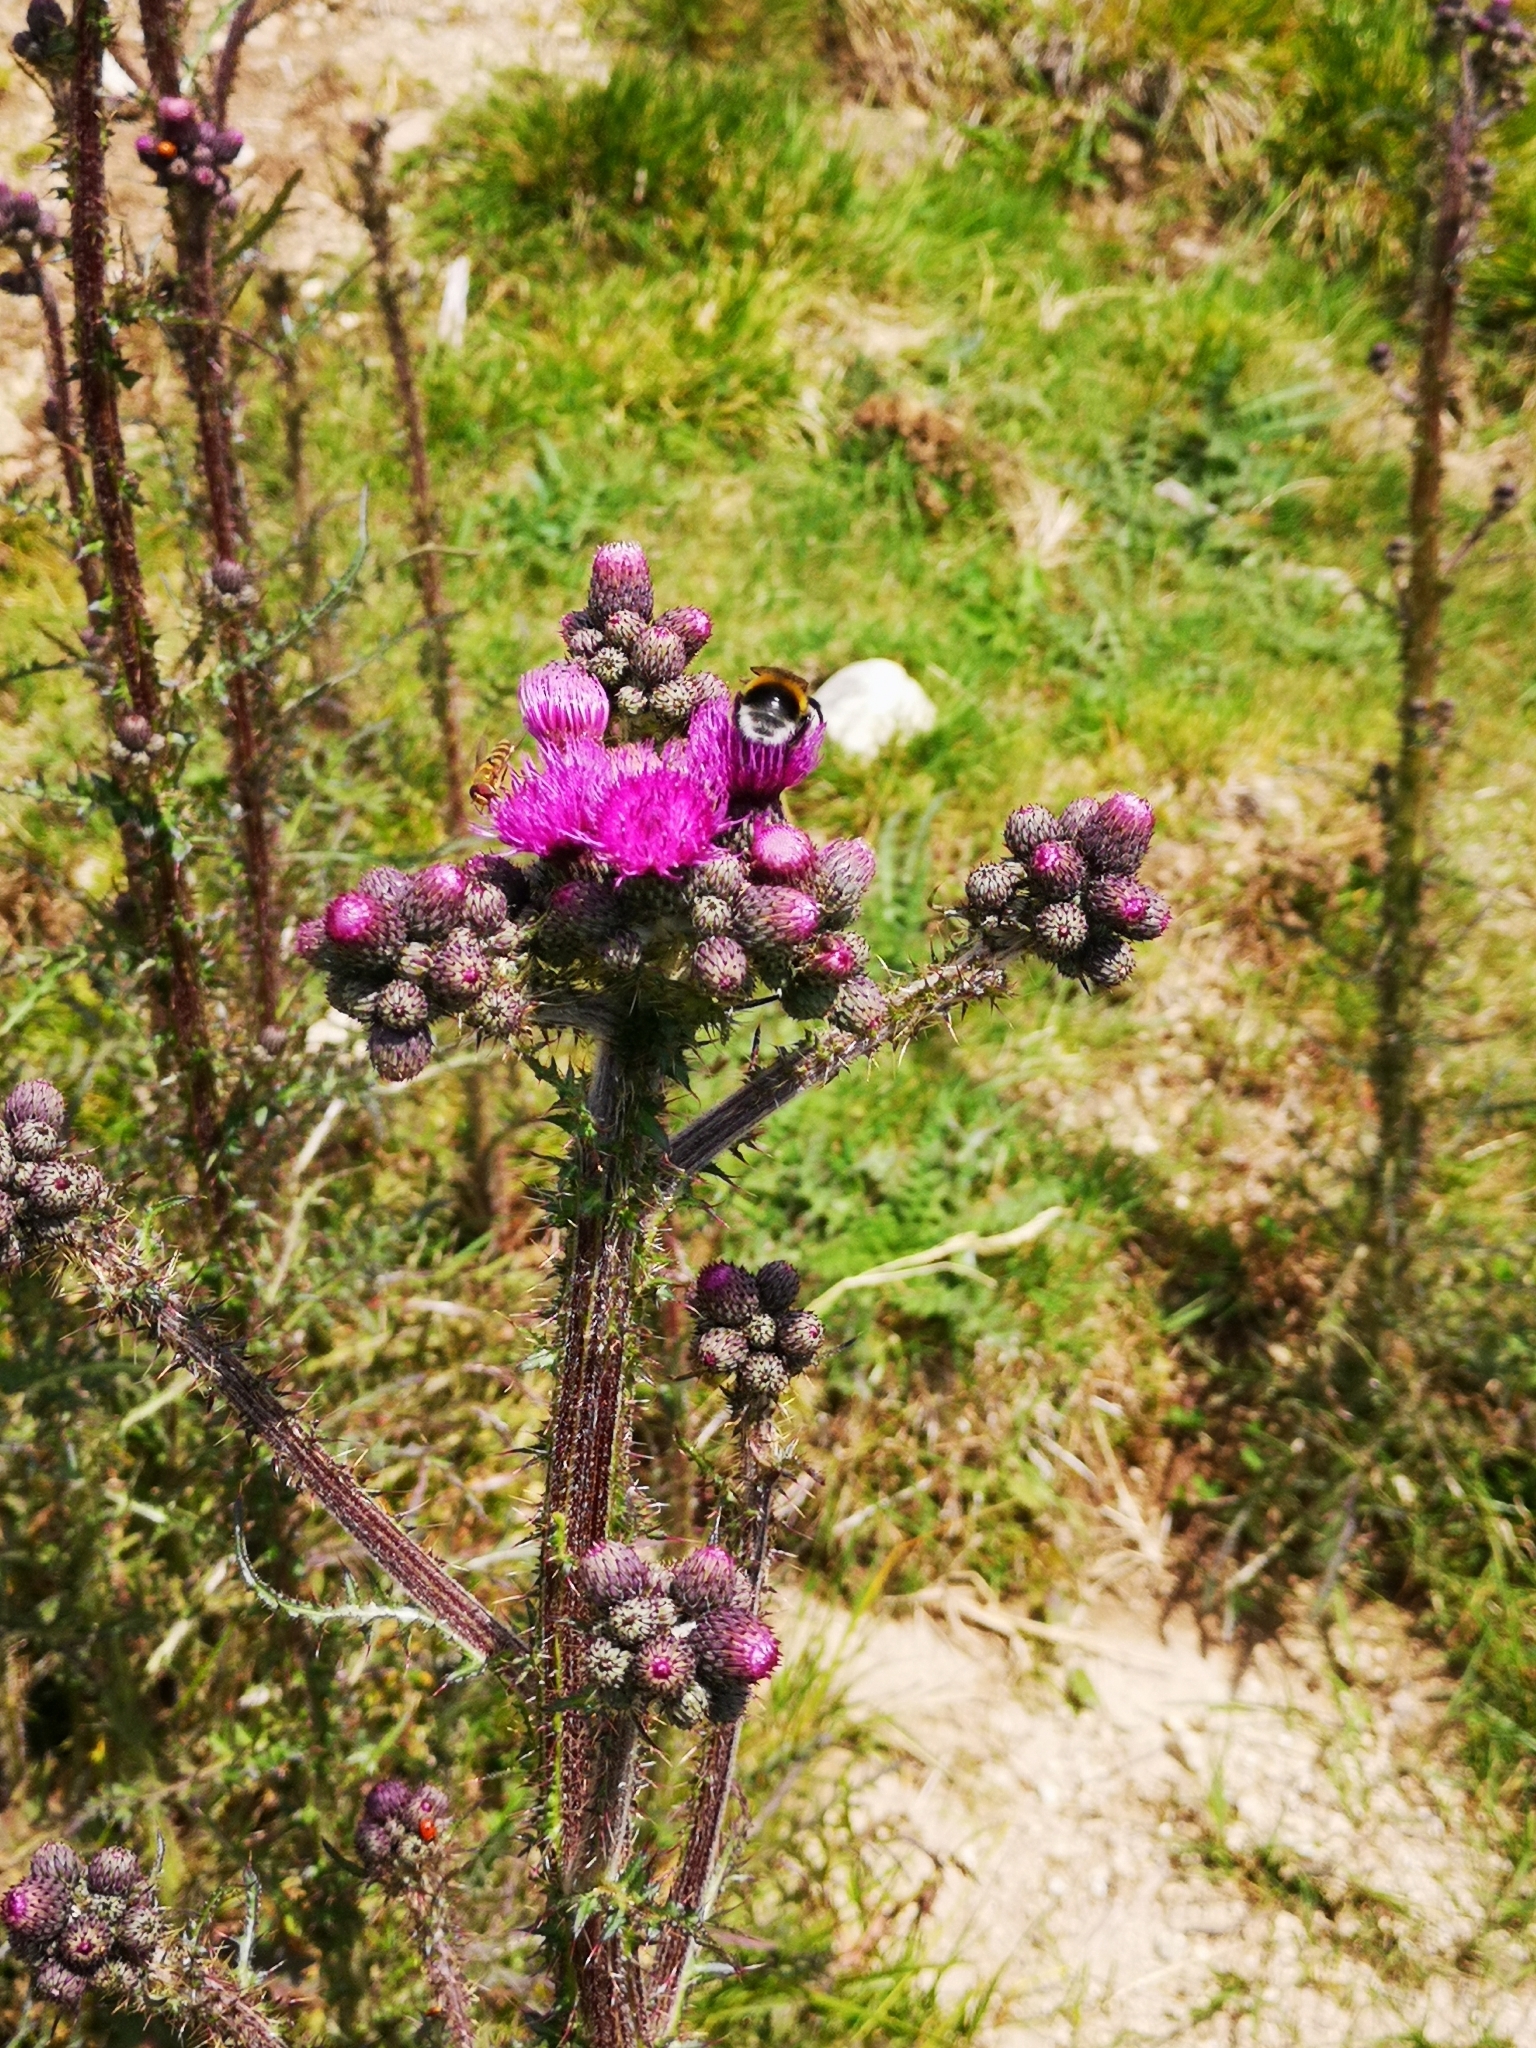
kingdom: Plantae
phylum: Tracheophyta
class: Magnoliopsida
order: Asterales
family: Asteraceae
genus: Cirsium
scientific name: Cirsium palustre
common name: Marsh thistle
